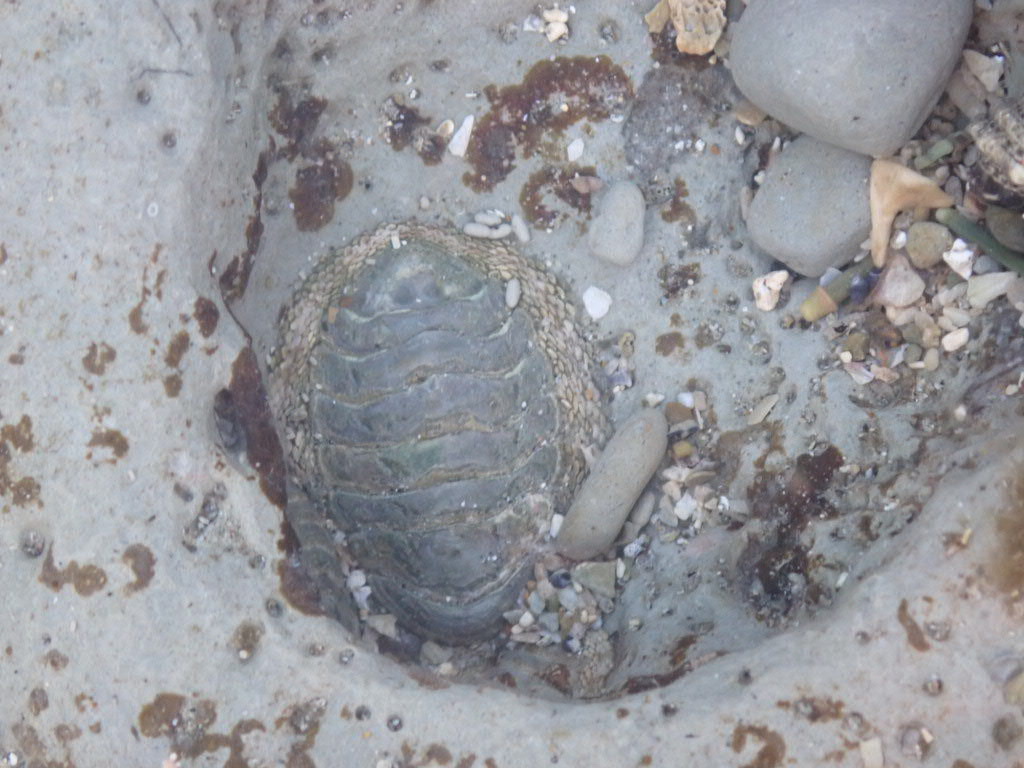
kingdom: Animalia
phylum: Mollusca
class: Polyplacophora
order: Chitonida
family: Chitonidae
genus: Sypharochiton
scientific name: Sypharochiton pelliserpentis
